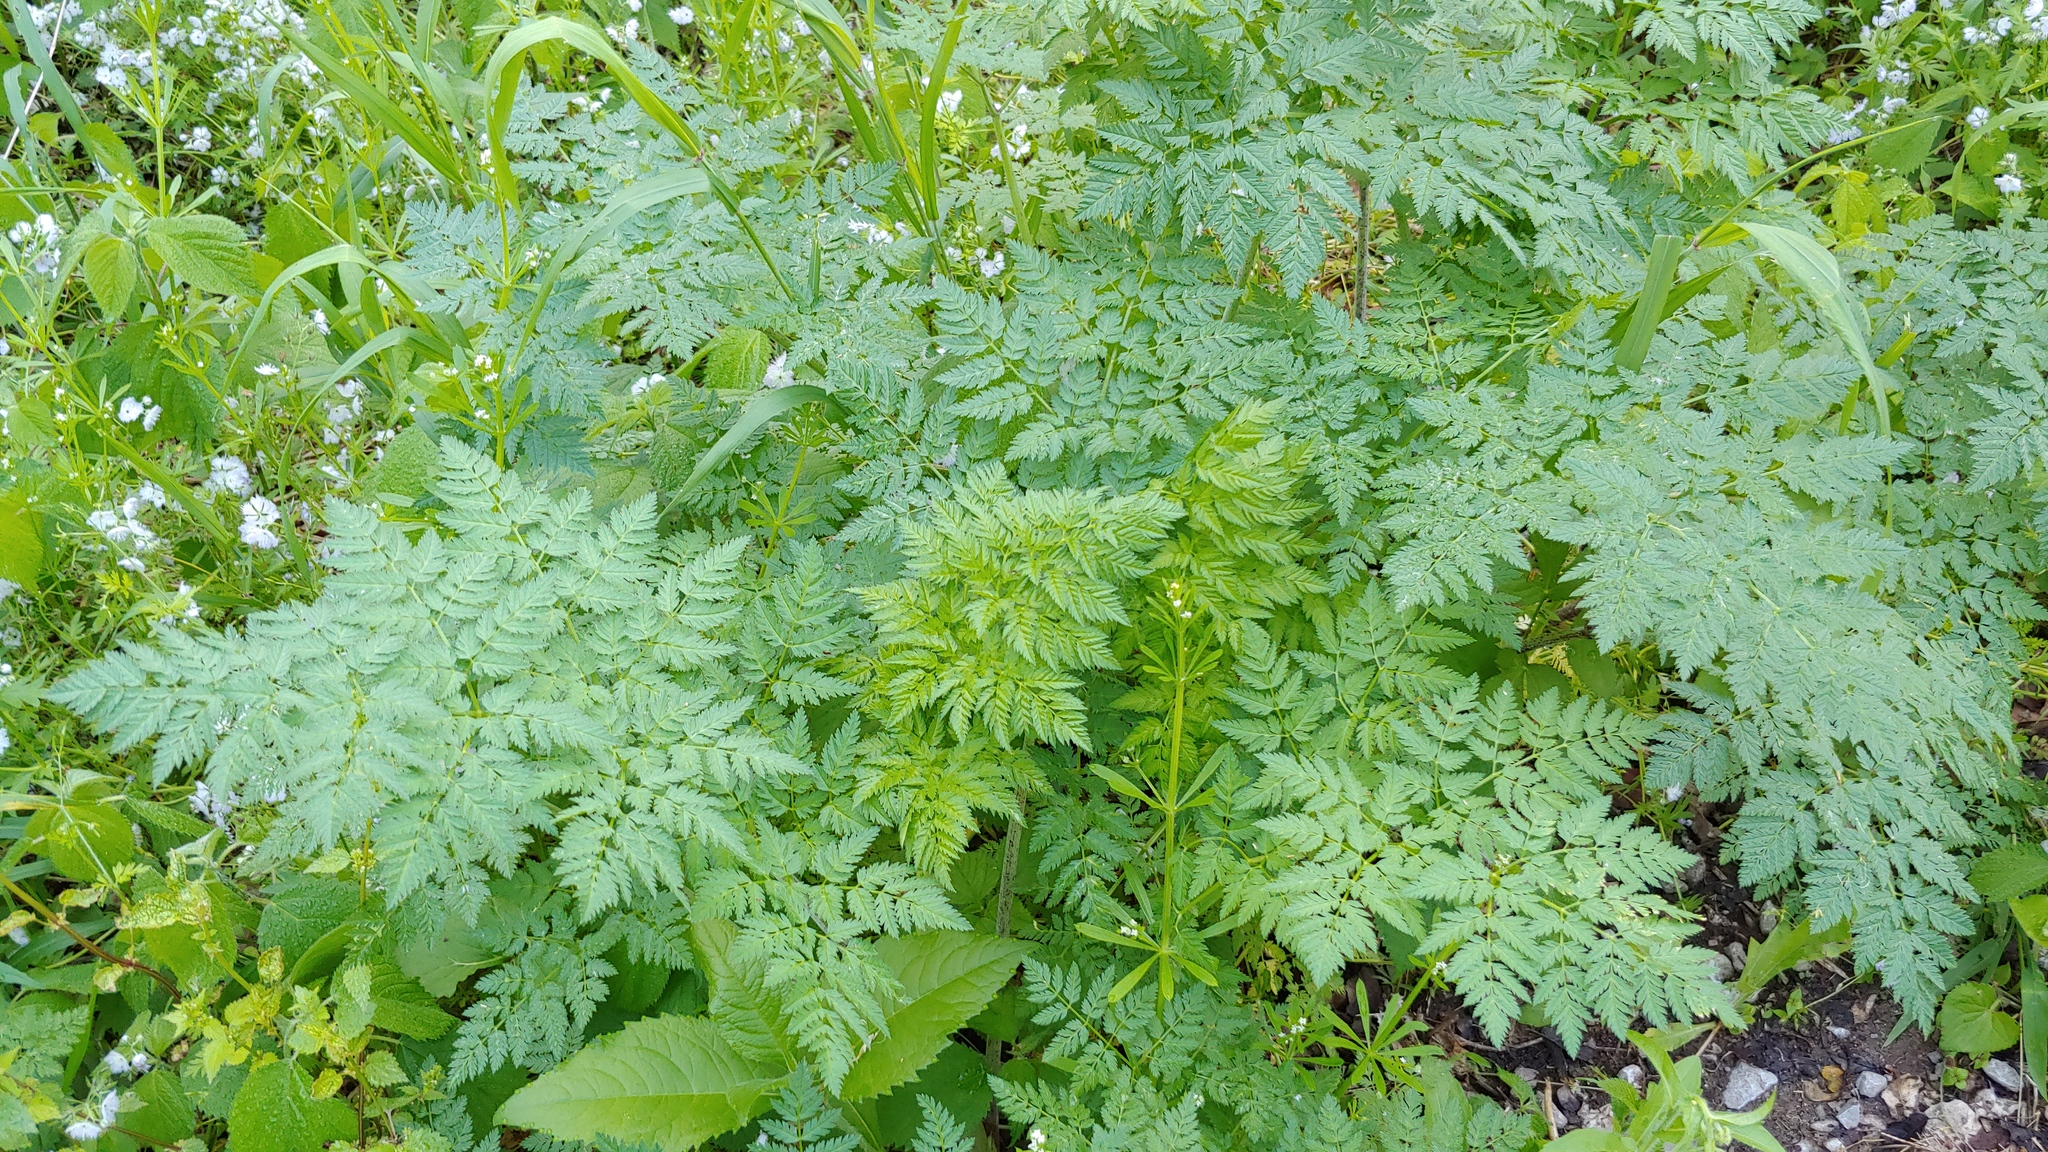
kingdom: Plantae
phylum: Tracheophyta
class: Magnoliopsida
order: Apiales
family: Apiaceae
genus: Conium
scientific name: Conium maculatum
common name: Hemlock
